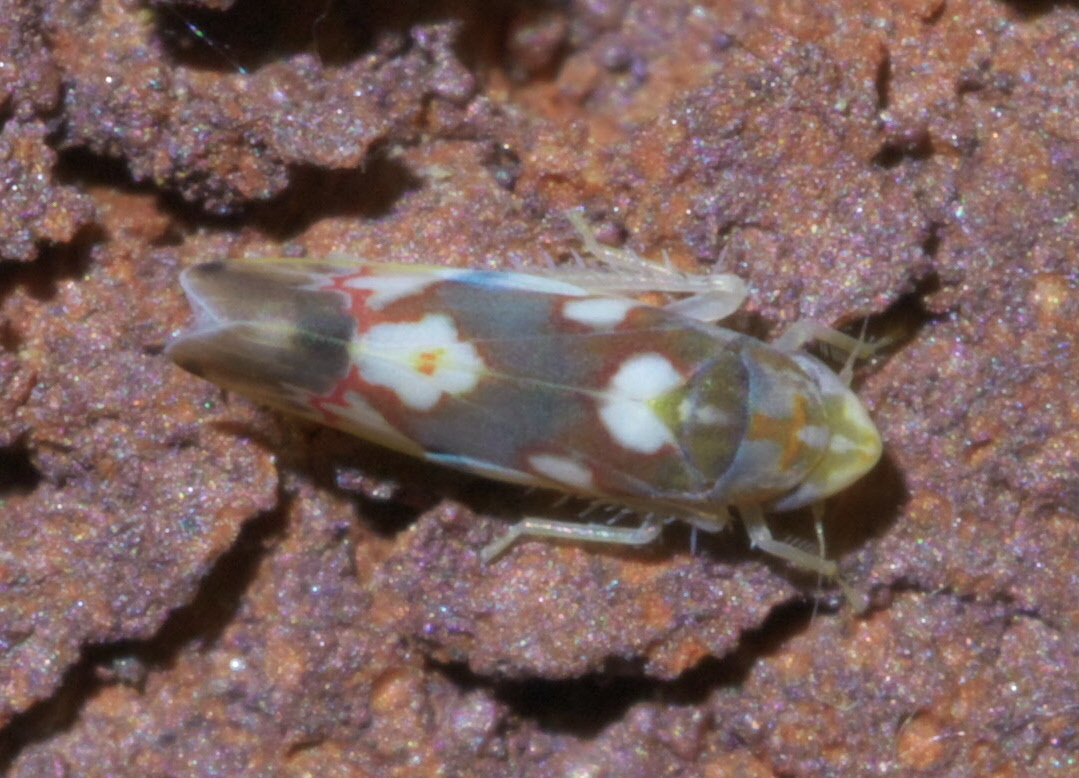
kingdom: Animalia
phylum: Arthropoda
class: Insecta
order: Hemiptera
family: Cicadellidae
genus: Erythroneura
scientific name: Erythroneura elegans
